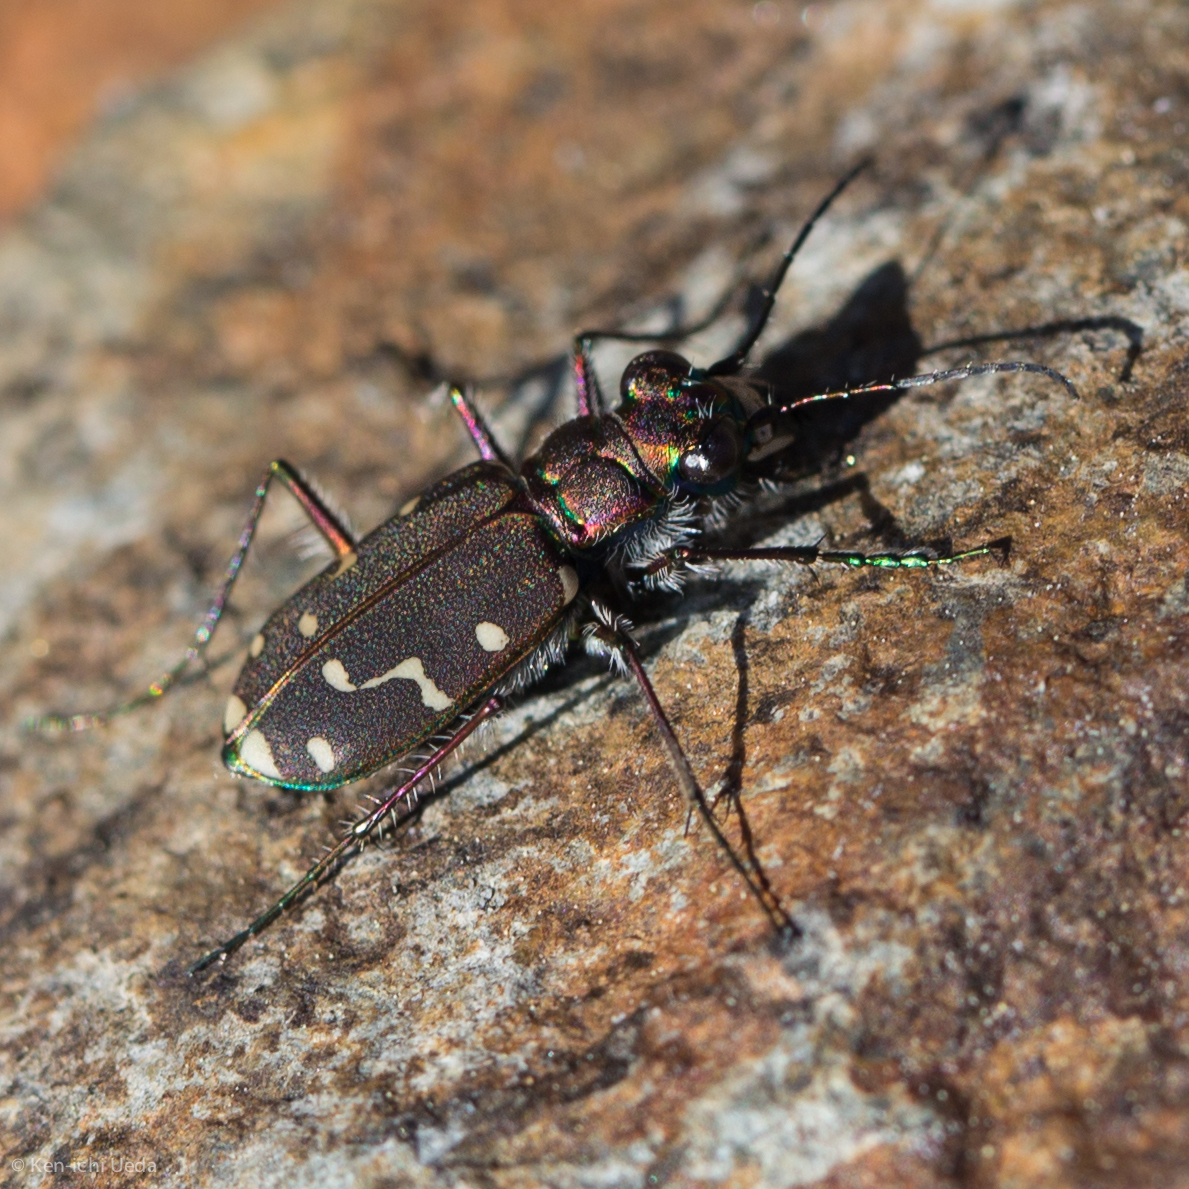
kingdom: Animalia
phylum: Arthropoda
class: Insecta
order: Coleoptera
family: Carabidae
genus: Cicindela
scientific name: Cicindela oregona
